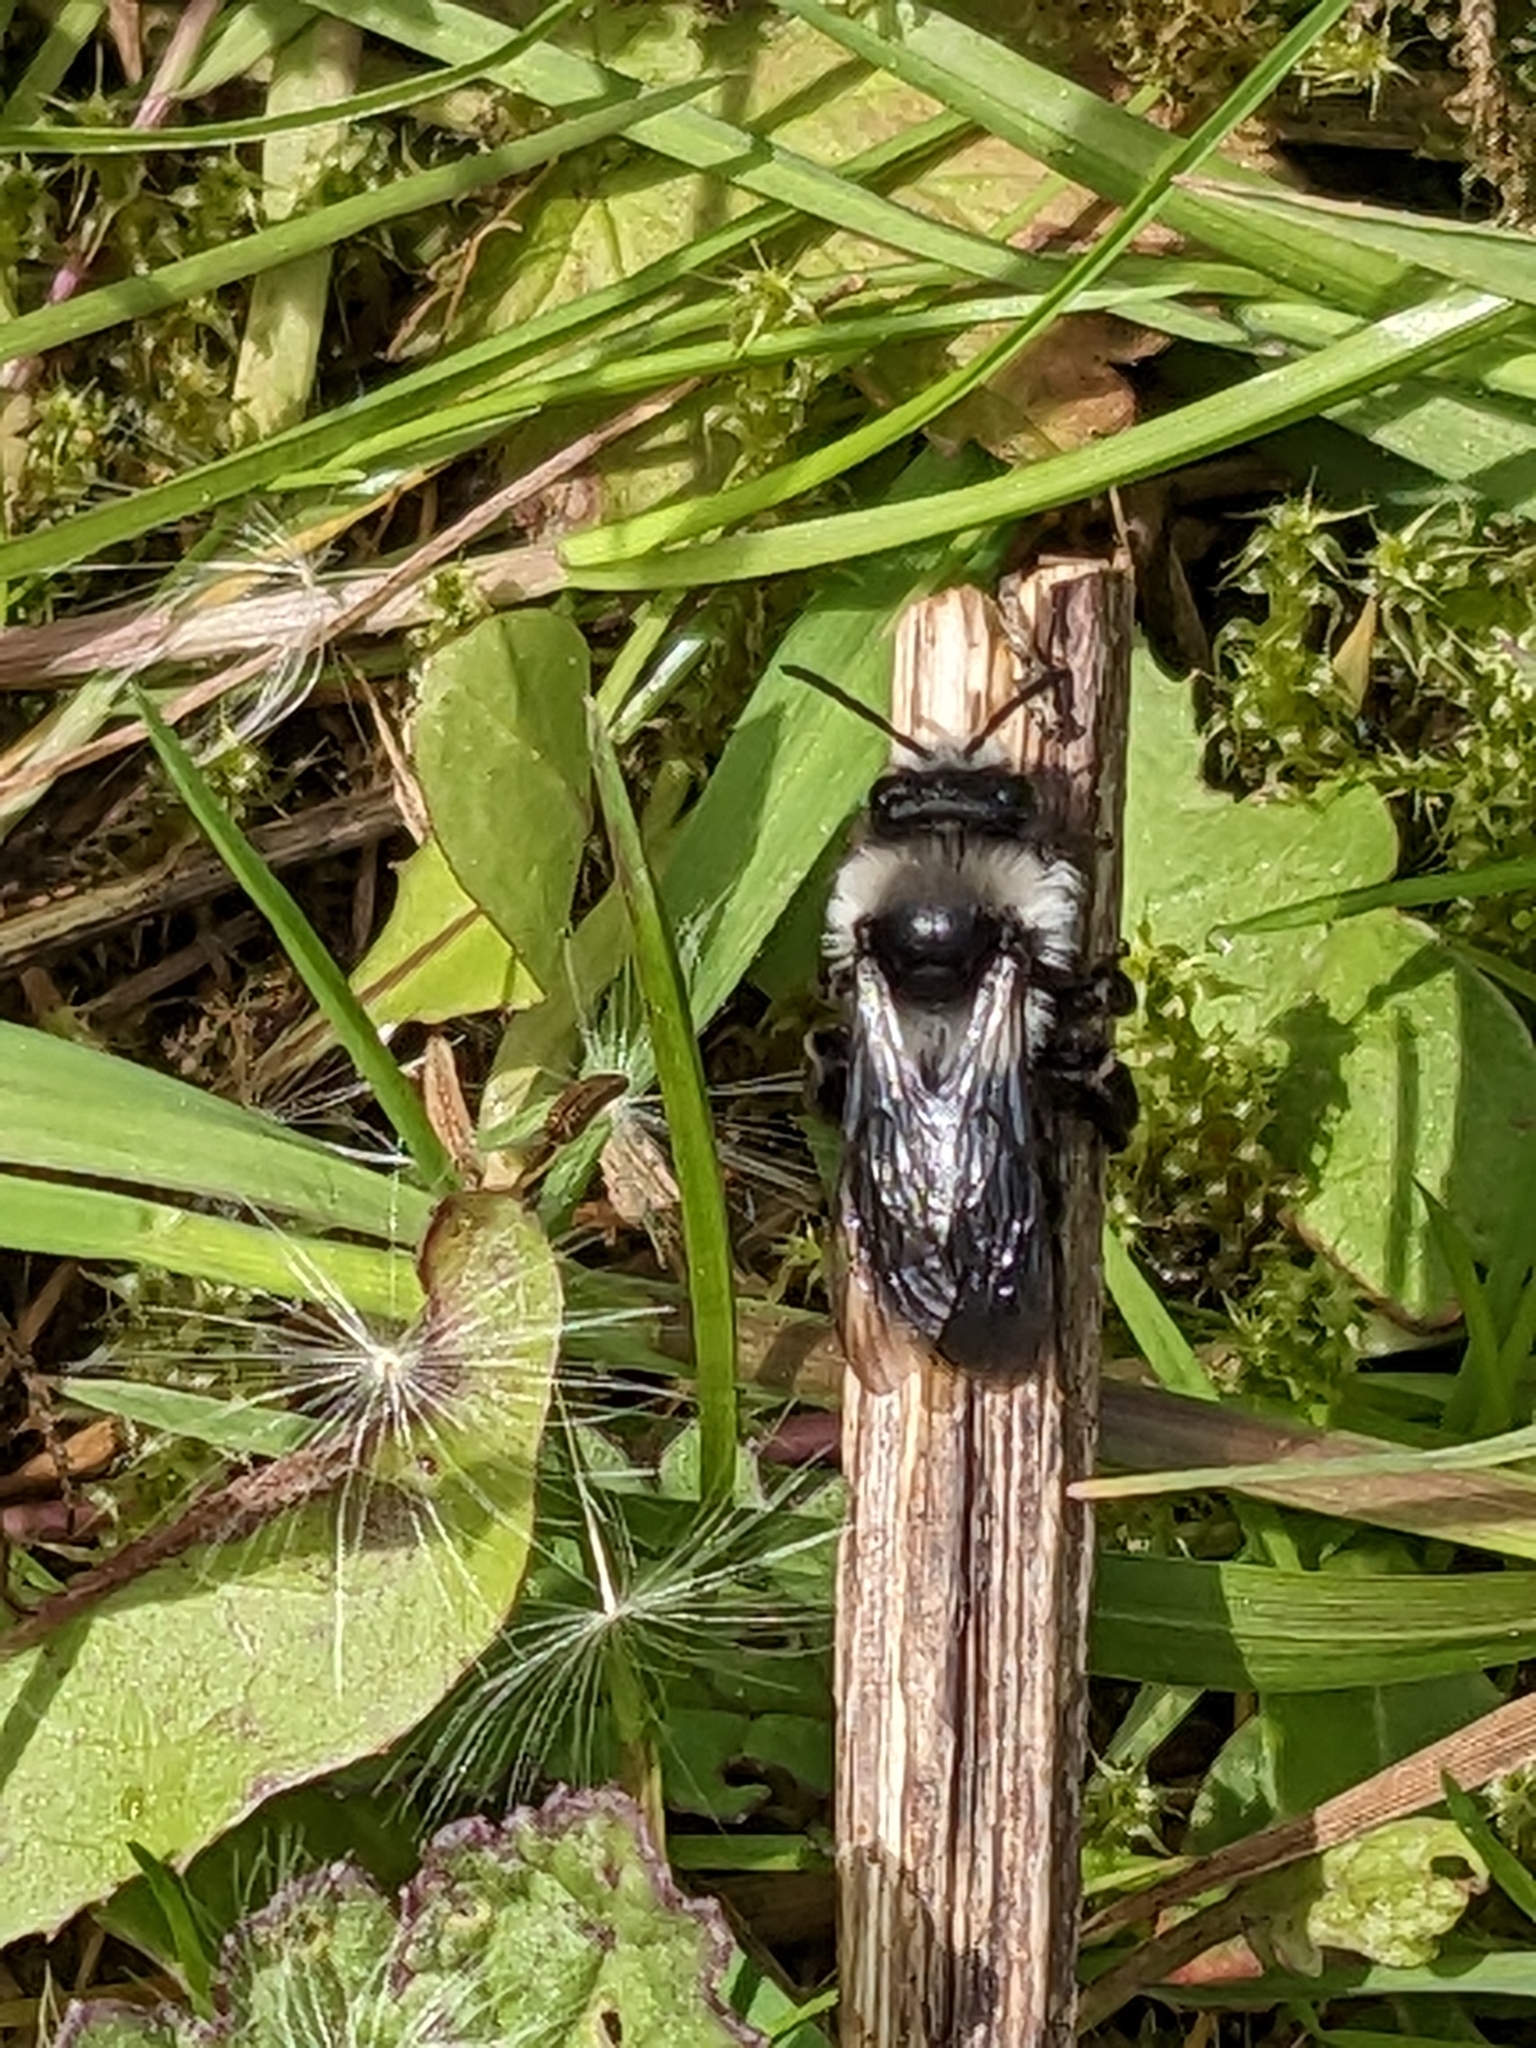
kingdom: Animalia
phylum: Arthropoda
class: Insecta
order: Hymenoptera
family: Andrenidae
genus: Andrena
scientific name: Andrena cineraria
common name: Ashy mining bee
